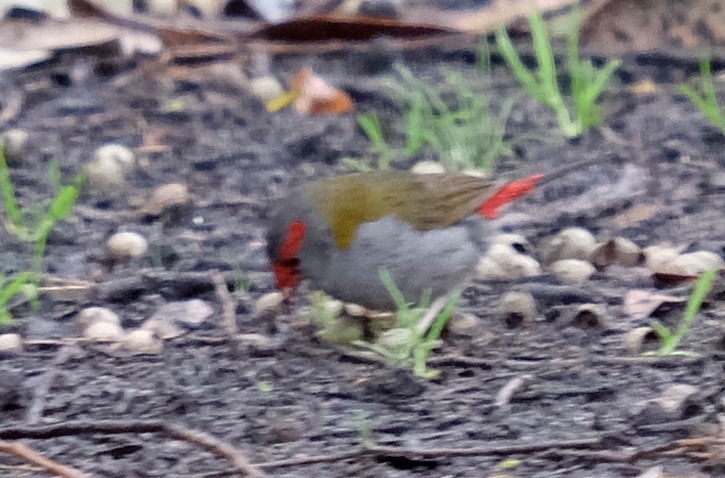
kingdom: Animalia
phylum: Chordata
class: Aves
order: Passeriformes
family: Estrildidae
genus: Neochmia
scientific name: Neochmia temporalis
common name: Red-browed finch
